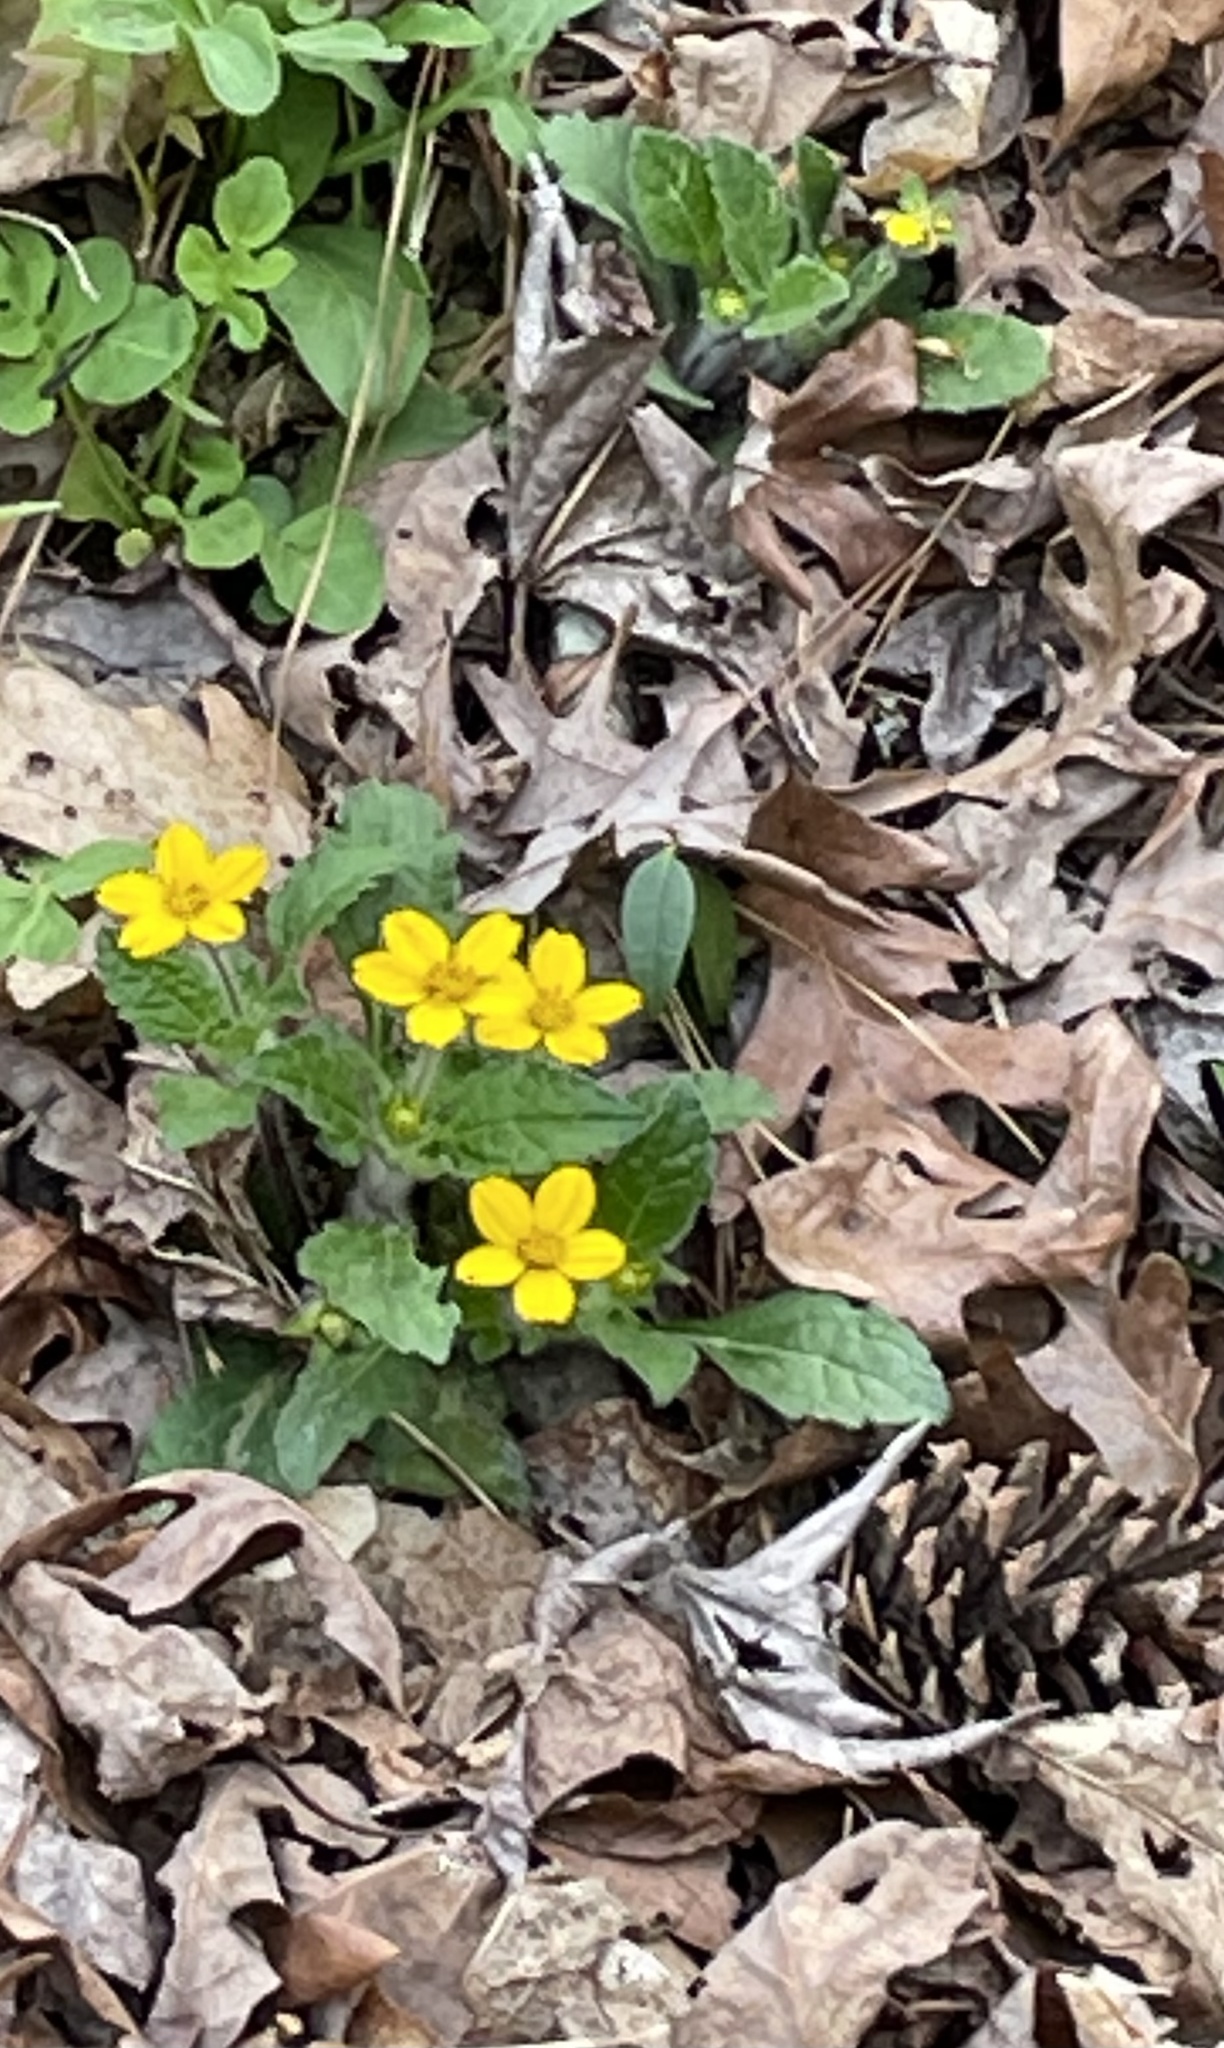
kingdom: Plantae
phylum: Tracheophyta
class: Magnoliopsida
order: Asterales
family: Asteraceae
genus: Chrysogonum
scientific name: Chrysogonum virginianum
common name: Golden-knee
